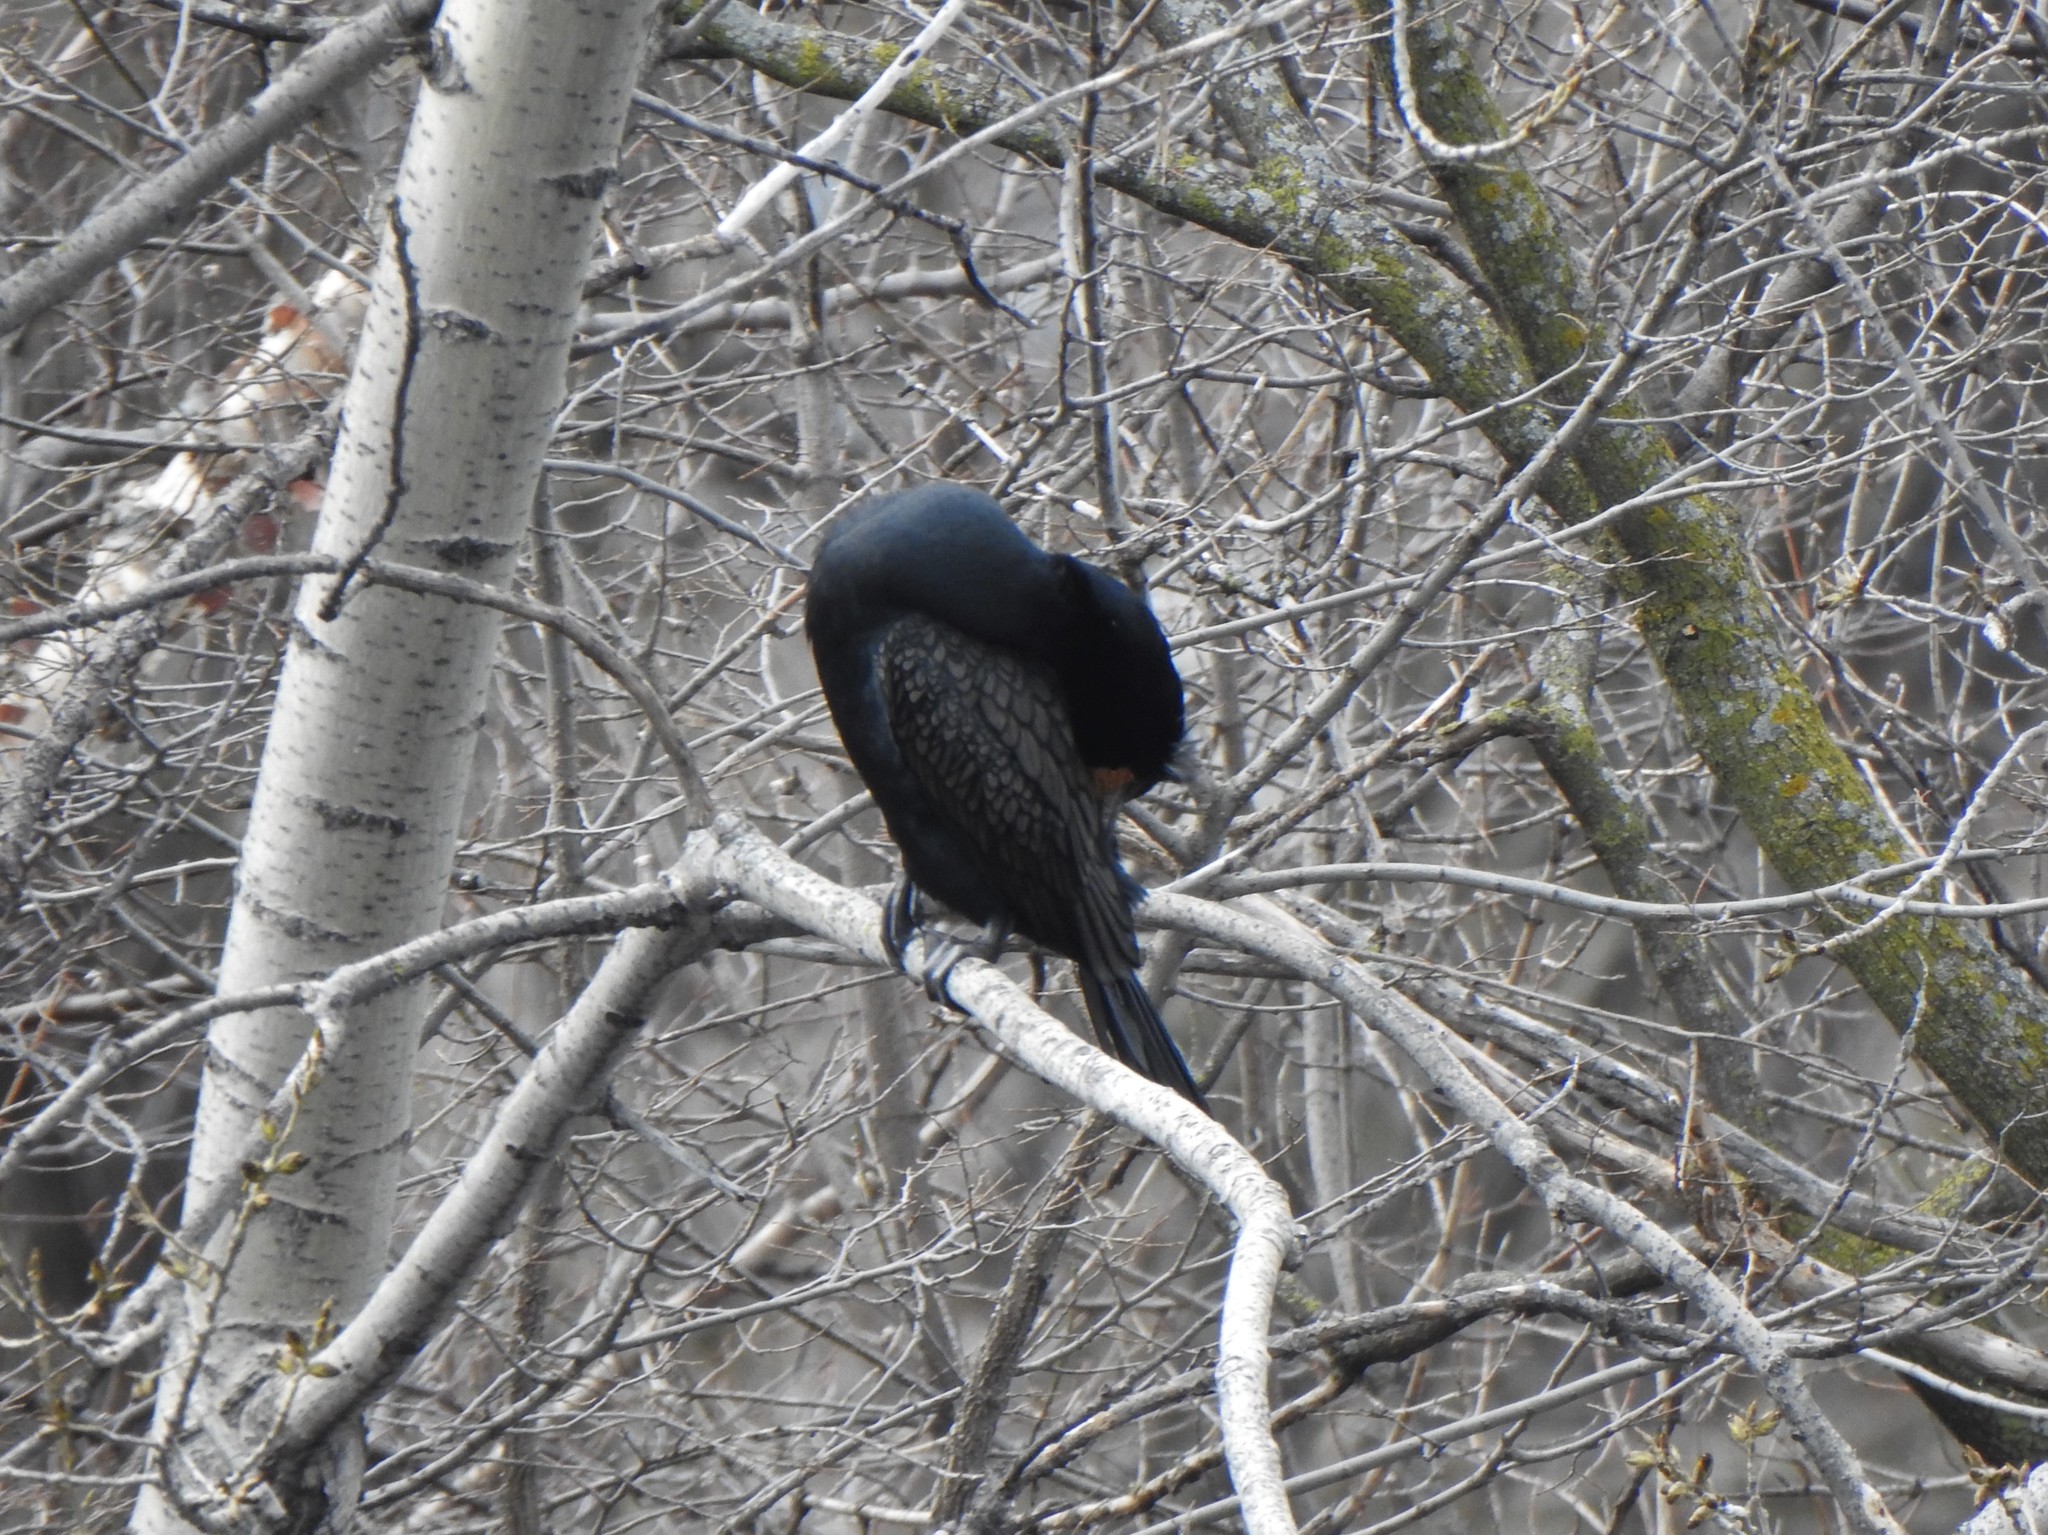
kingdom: Animalia
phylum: Chordata
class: Aves
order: Suliformes
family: Phalacrocoracidae
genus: Phalacrocorax
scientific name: Phalacrocorax auritus
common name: Double-crested cormorant
